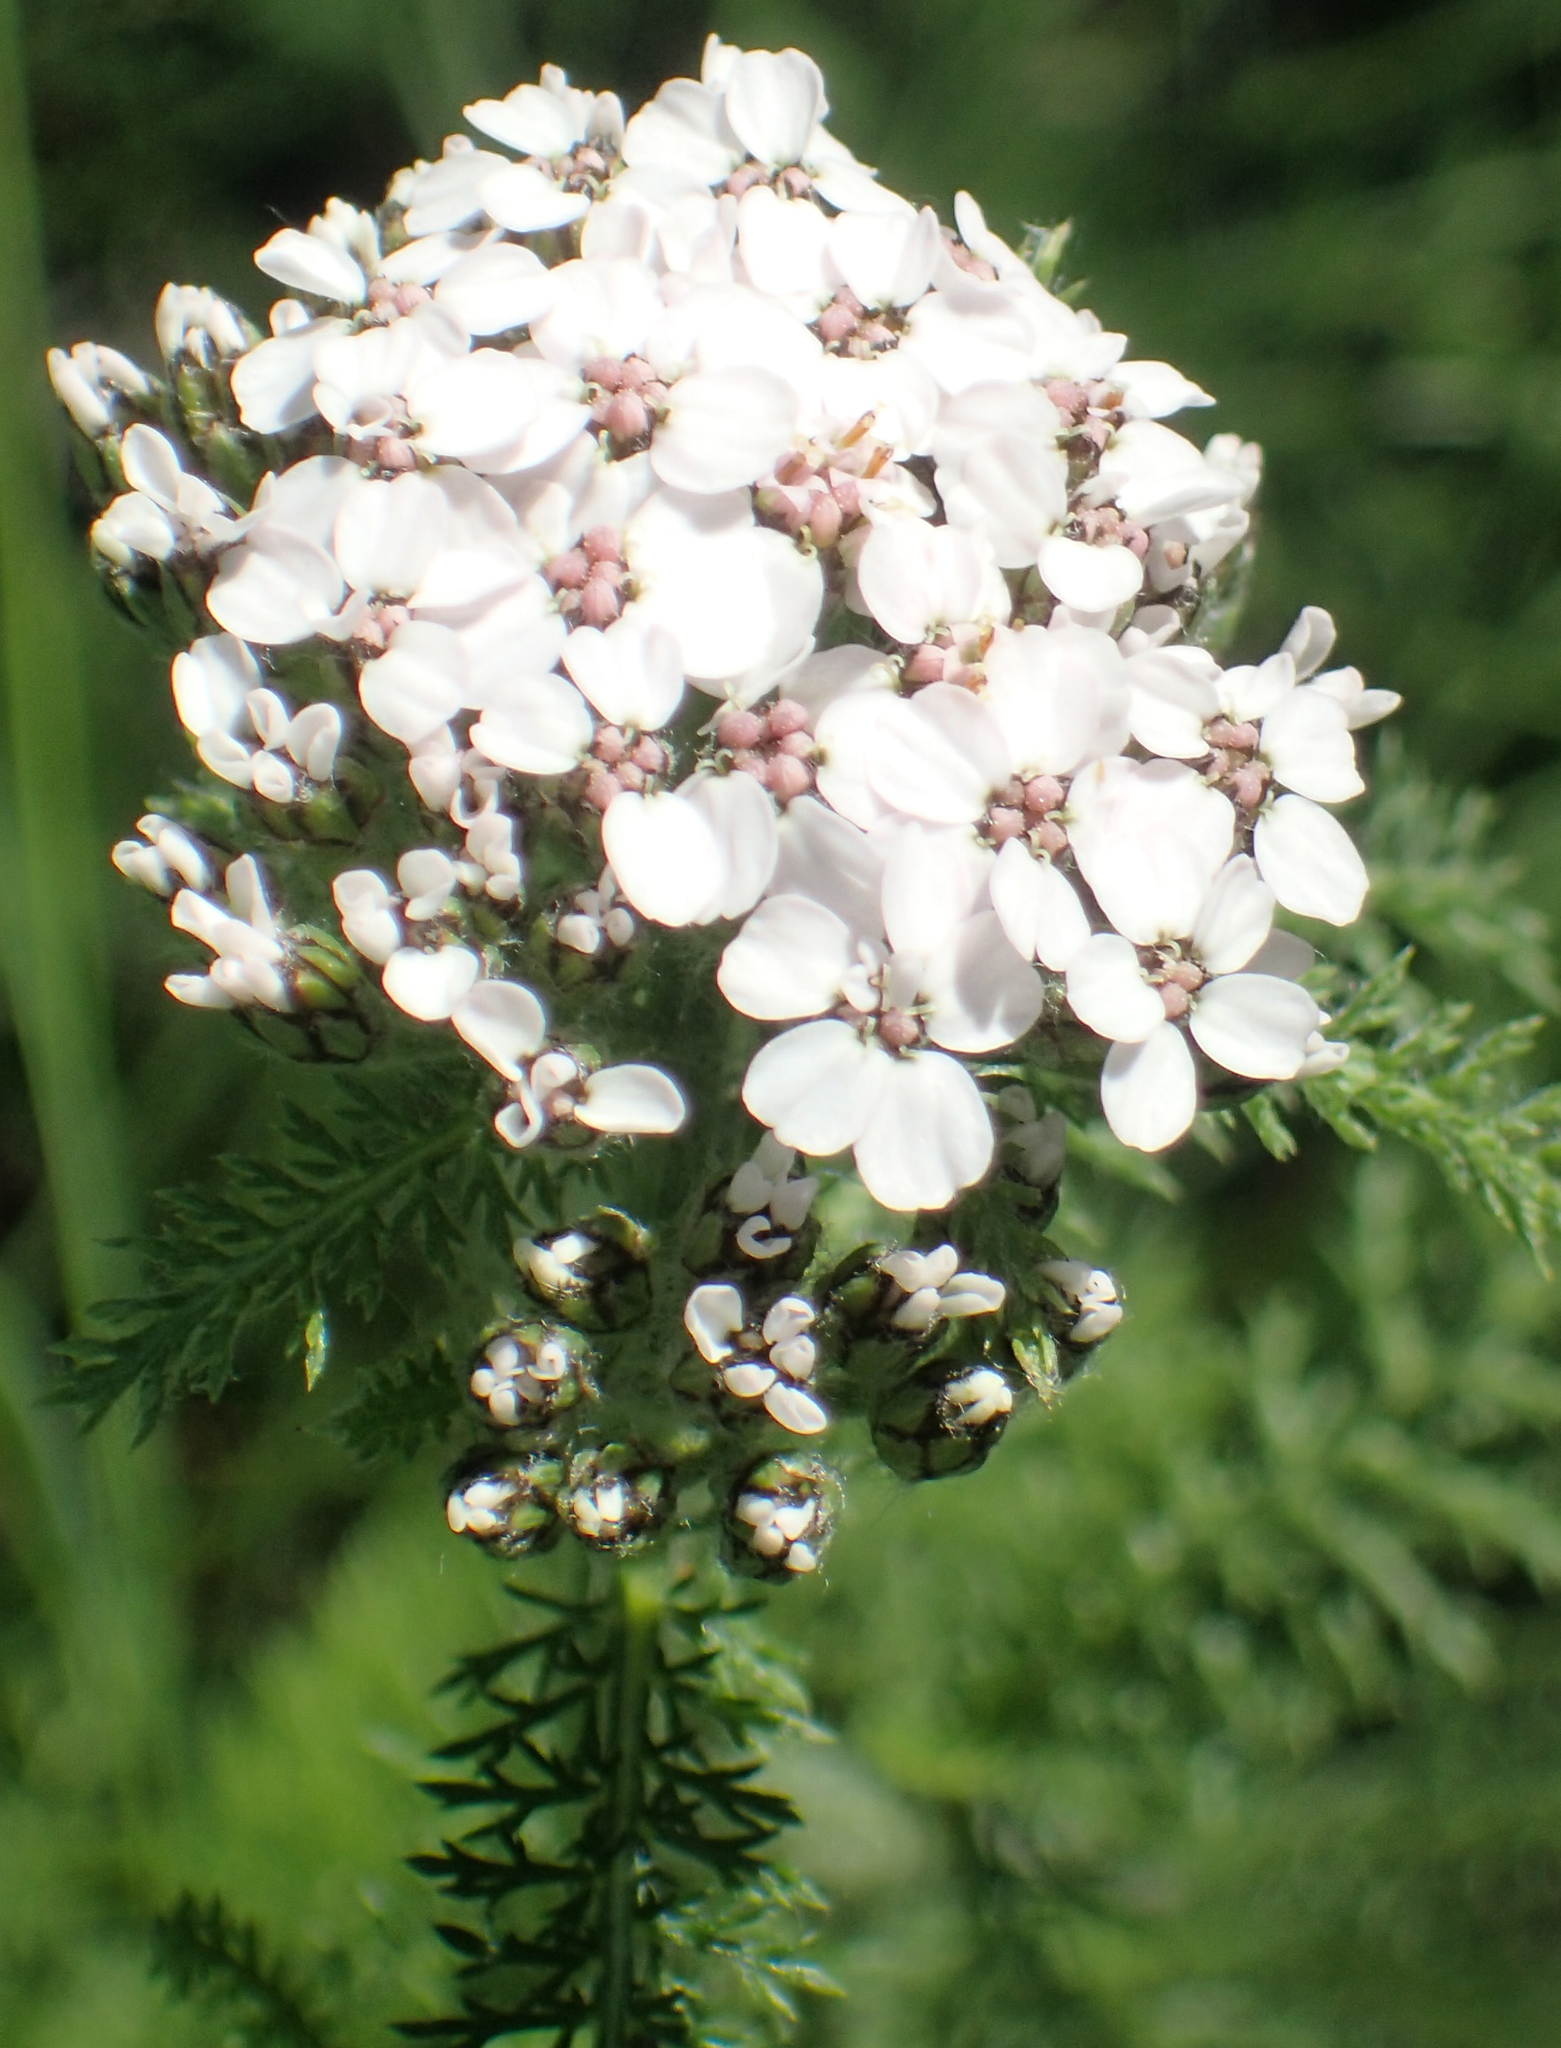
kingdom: Plantae
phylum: Tracheophyta
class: Magnoliopsida
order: Asterales
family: Asteraceae
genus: Achillea
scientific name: Achillea millefolium
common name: Yarrow
